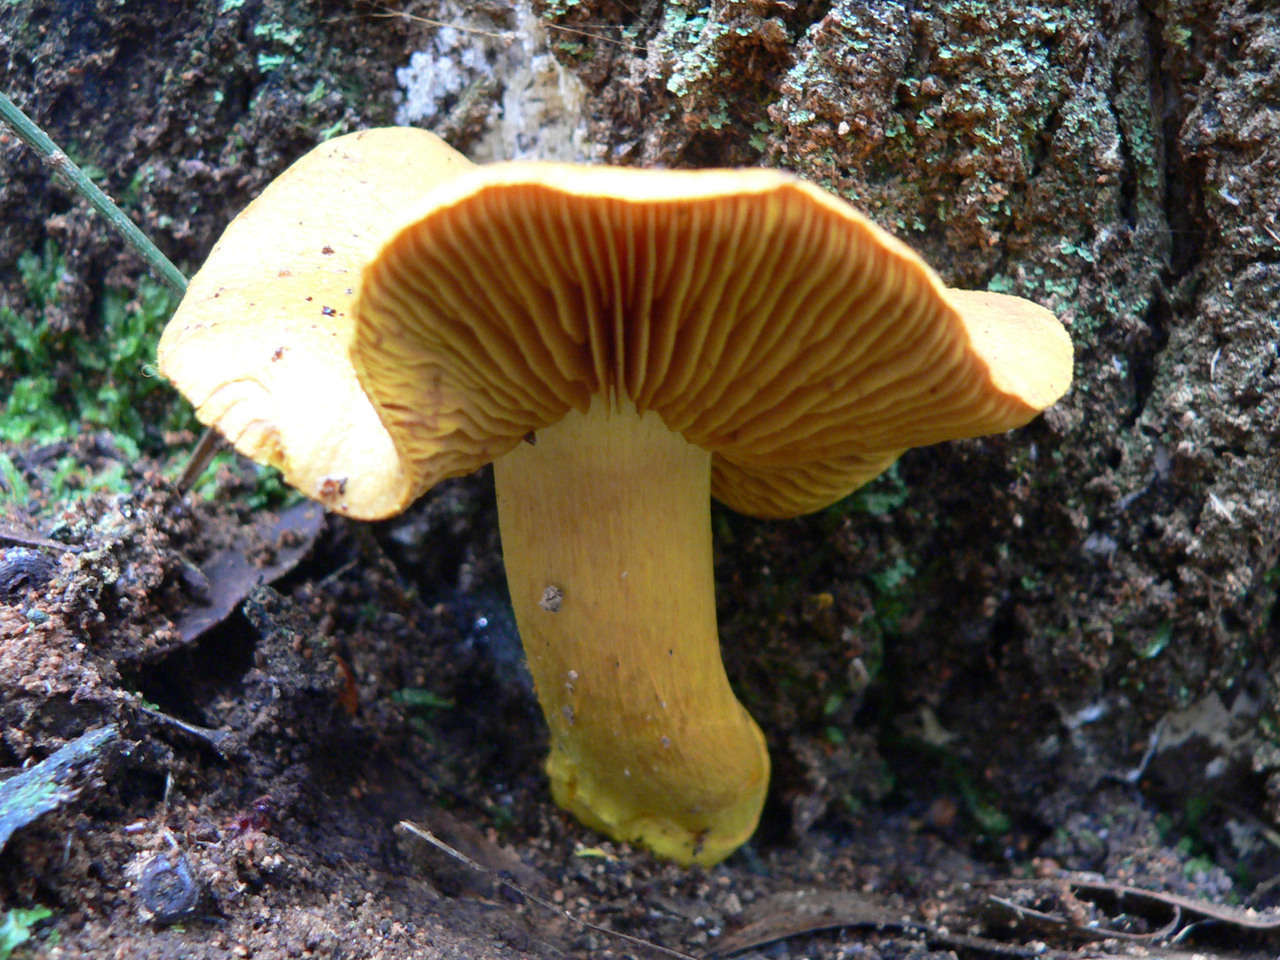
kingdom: Fungi
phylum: Basidiomycota
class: Agaricomycetes
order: Agaricales
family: Cortinariaceae
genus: Cortinarius
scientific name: Cortinarius canarius
